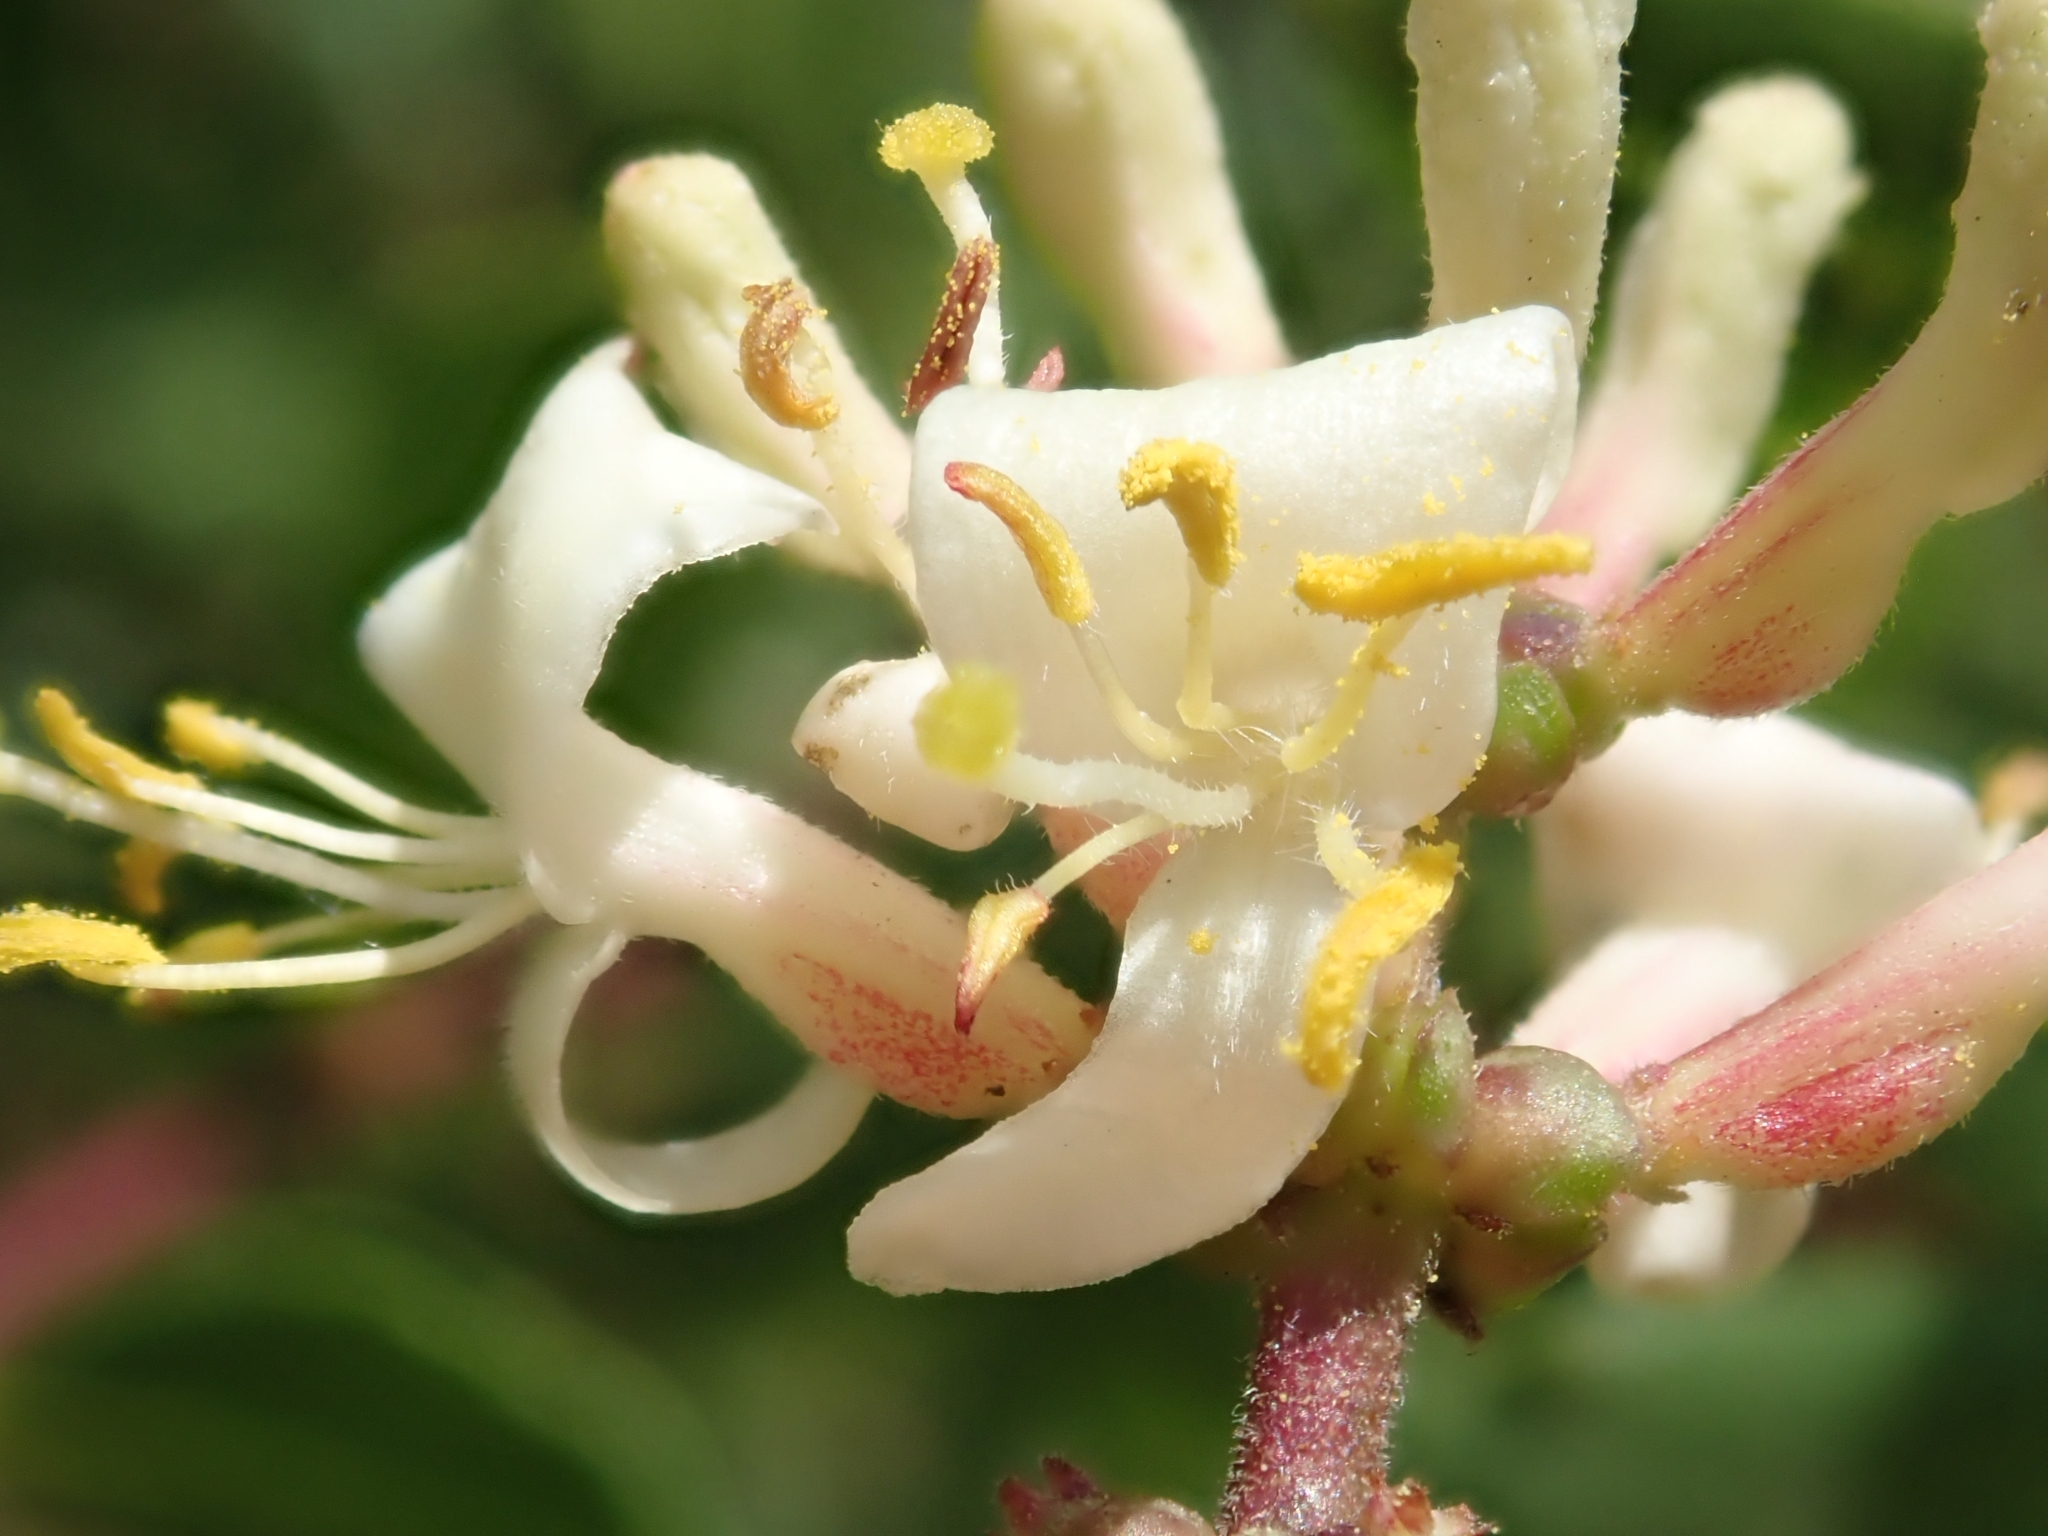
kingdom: Plantae
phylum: Tracheophyta
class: Magnoliopsida
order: Dipsacales
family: Caprifoliaceae
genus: Lonicera
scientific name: Lonicera subspicata
